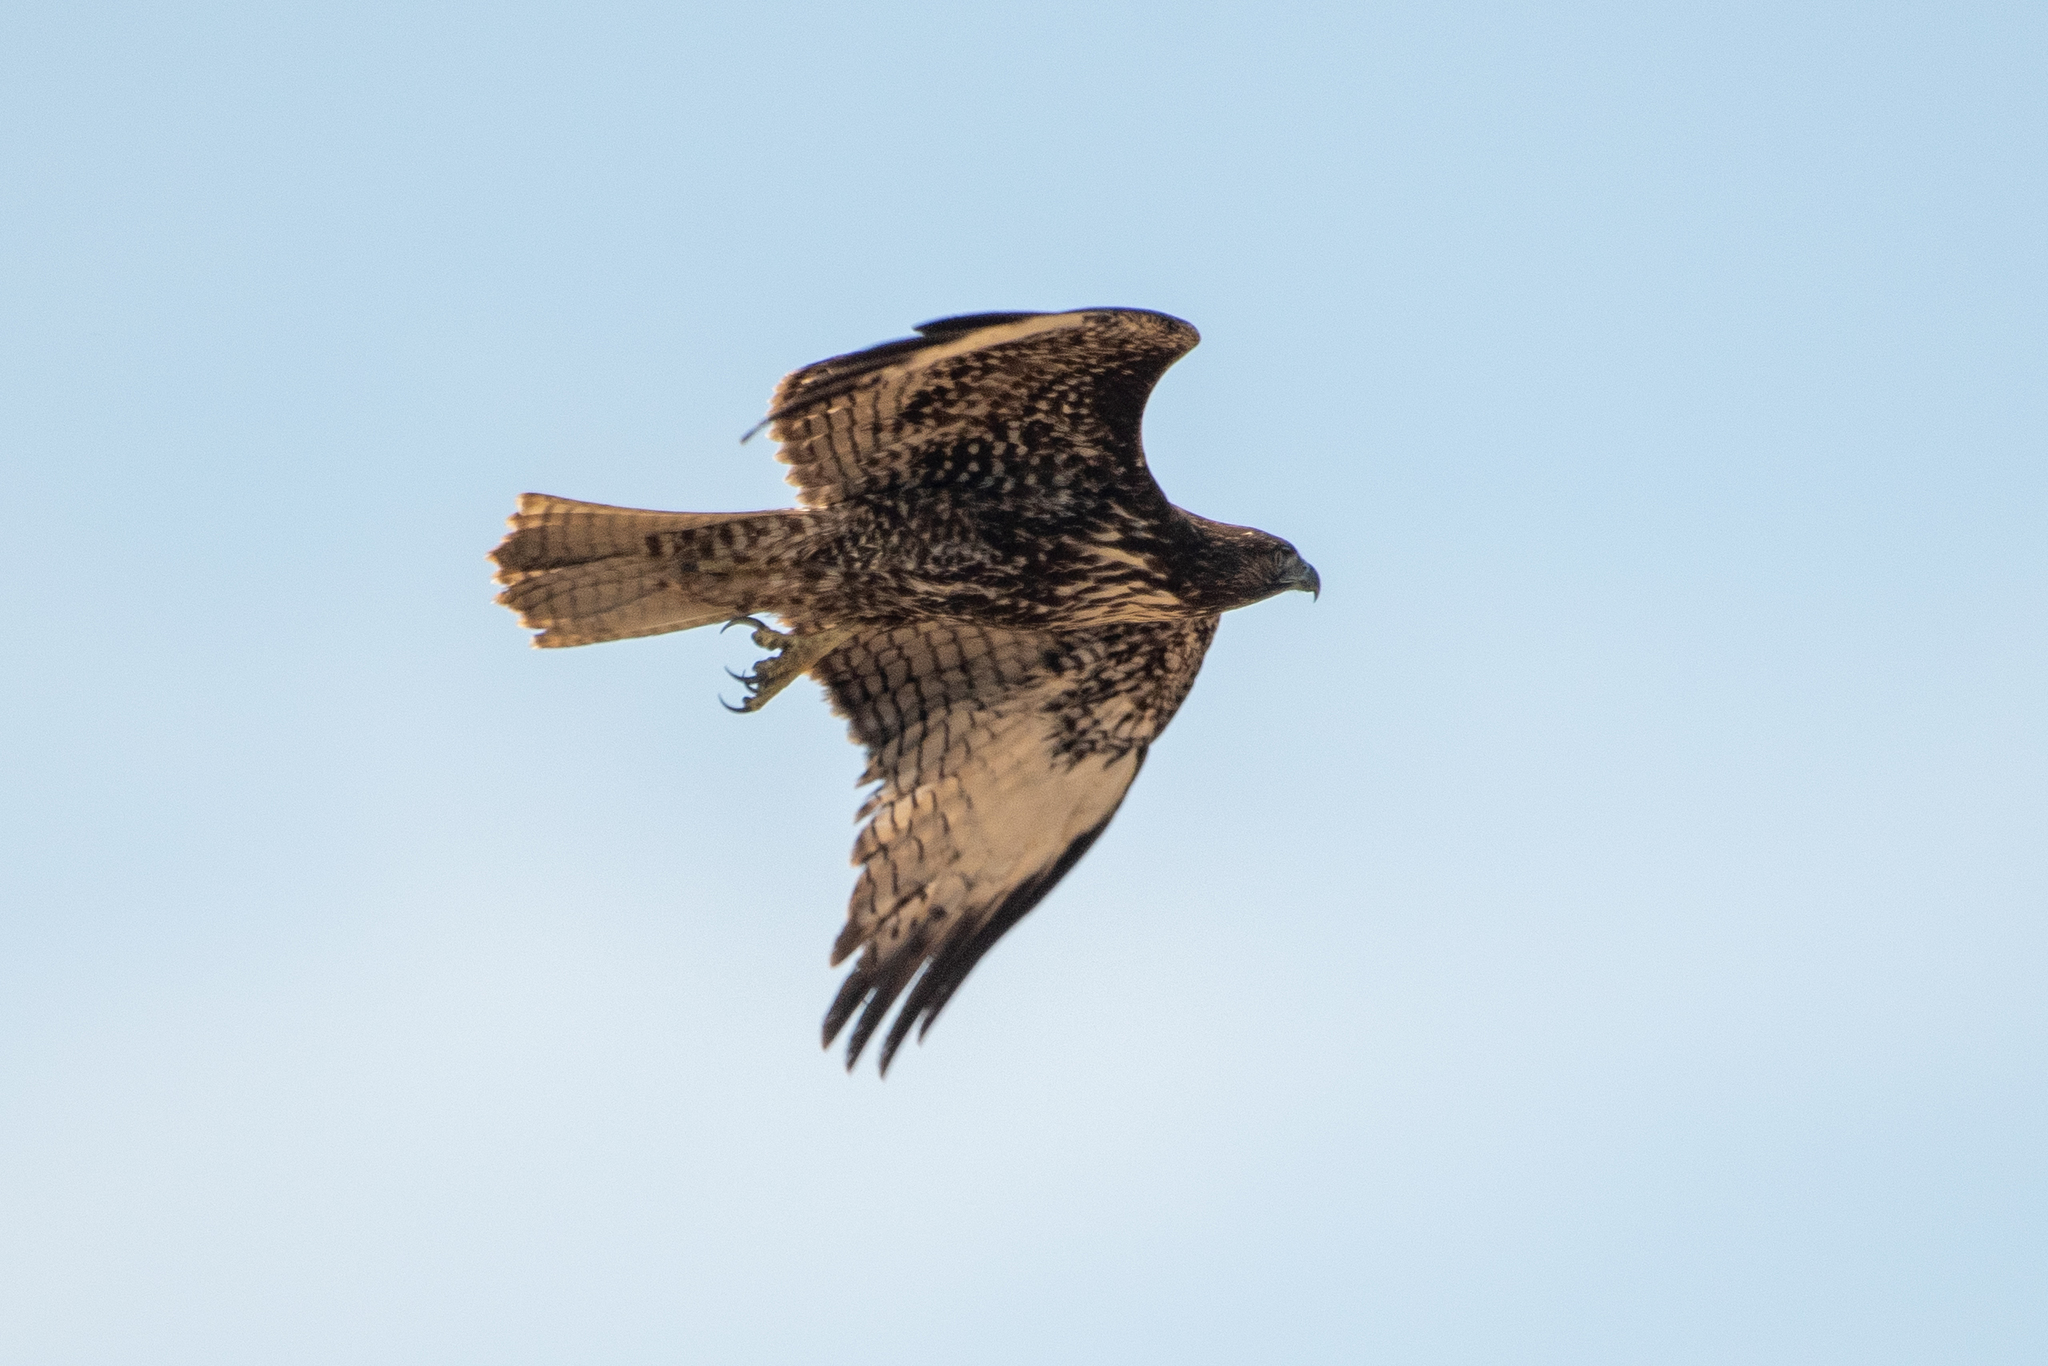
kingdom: Animalia
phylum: Chordata
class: Aves
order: Accipitriformes
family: Accipitridae
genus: Buteo
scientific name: Buteo jamaicensis
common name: Red-tailed hawk
